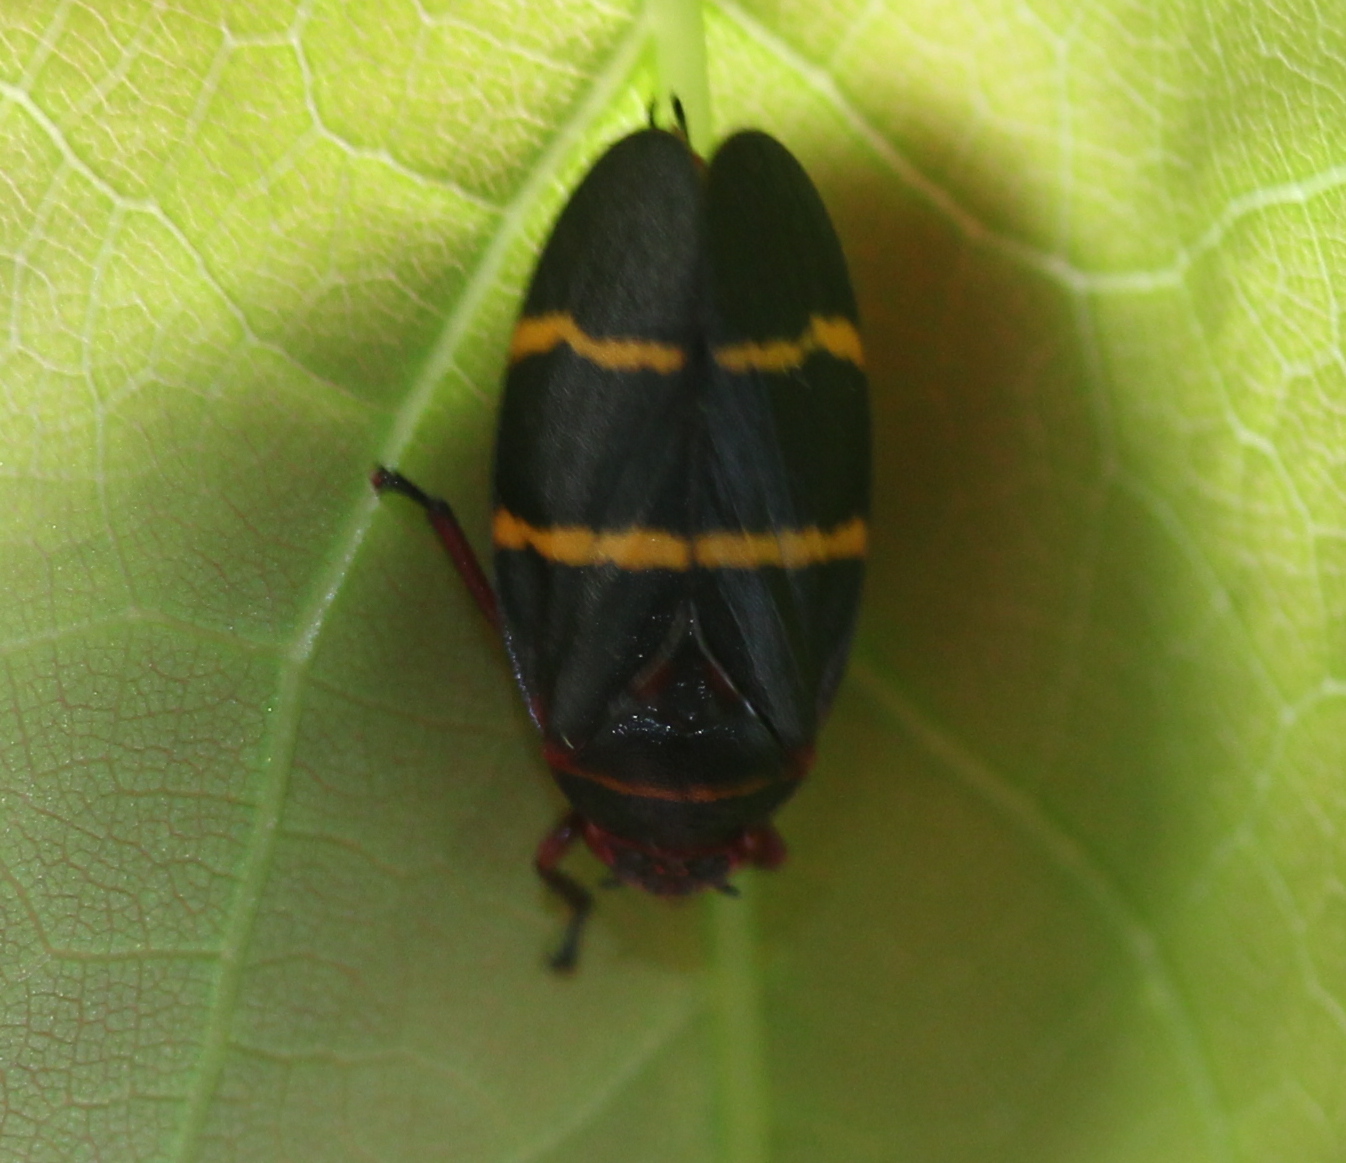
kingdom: Animalia
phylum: Arthropoda
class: Insecta
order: Hemiptera
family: Cercopidae
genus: Prosapia
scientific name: Prosapia bicincta
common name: Twolined spittlebug
